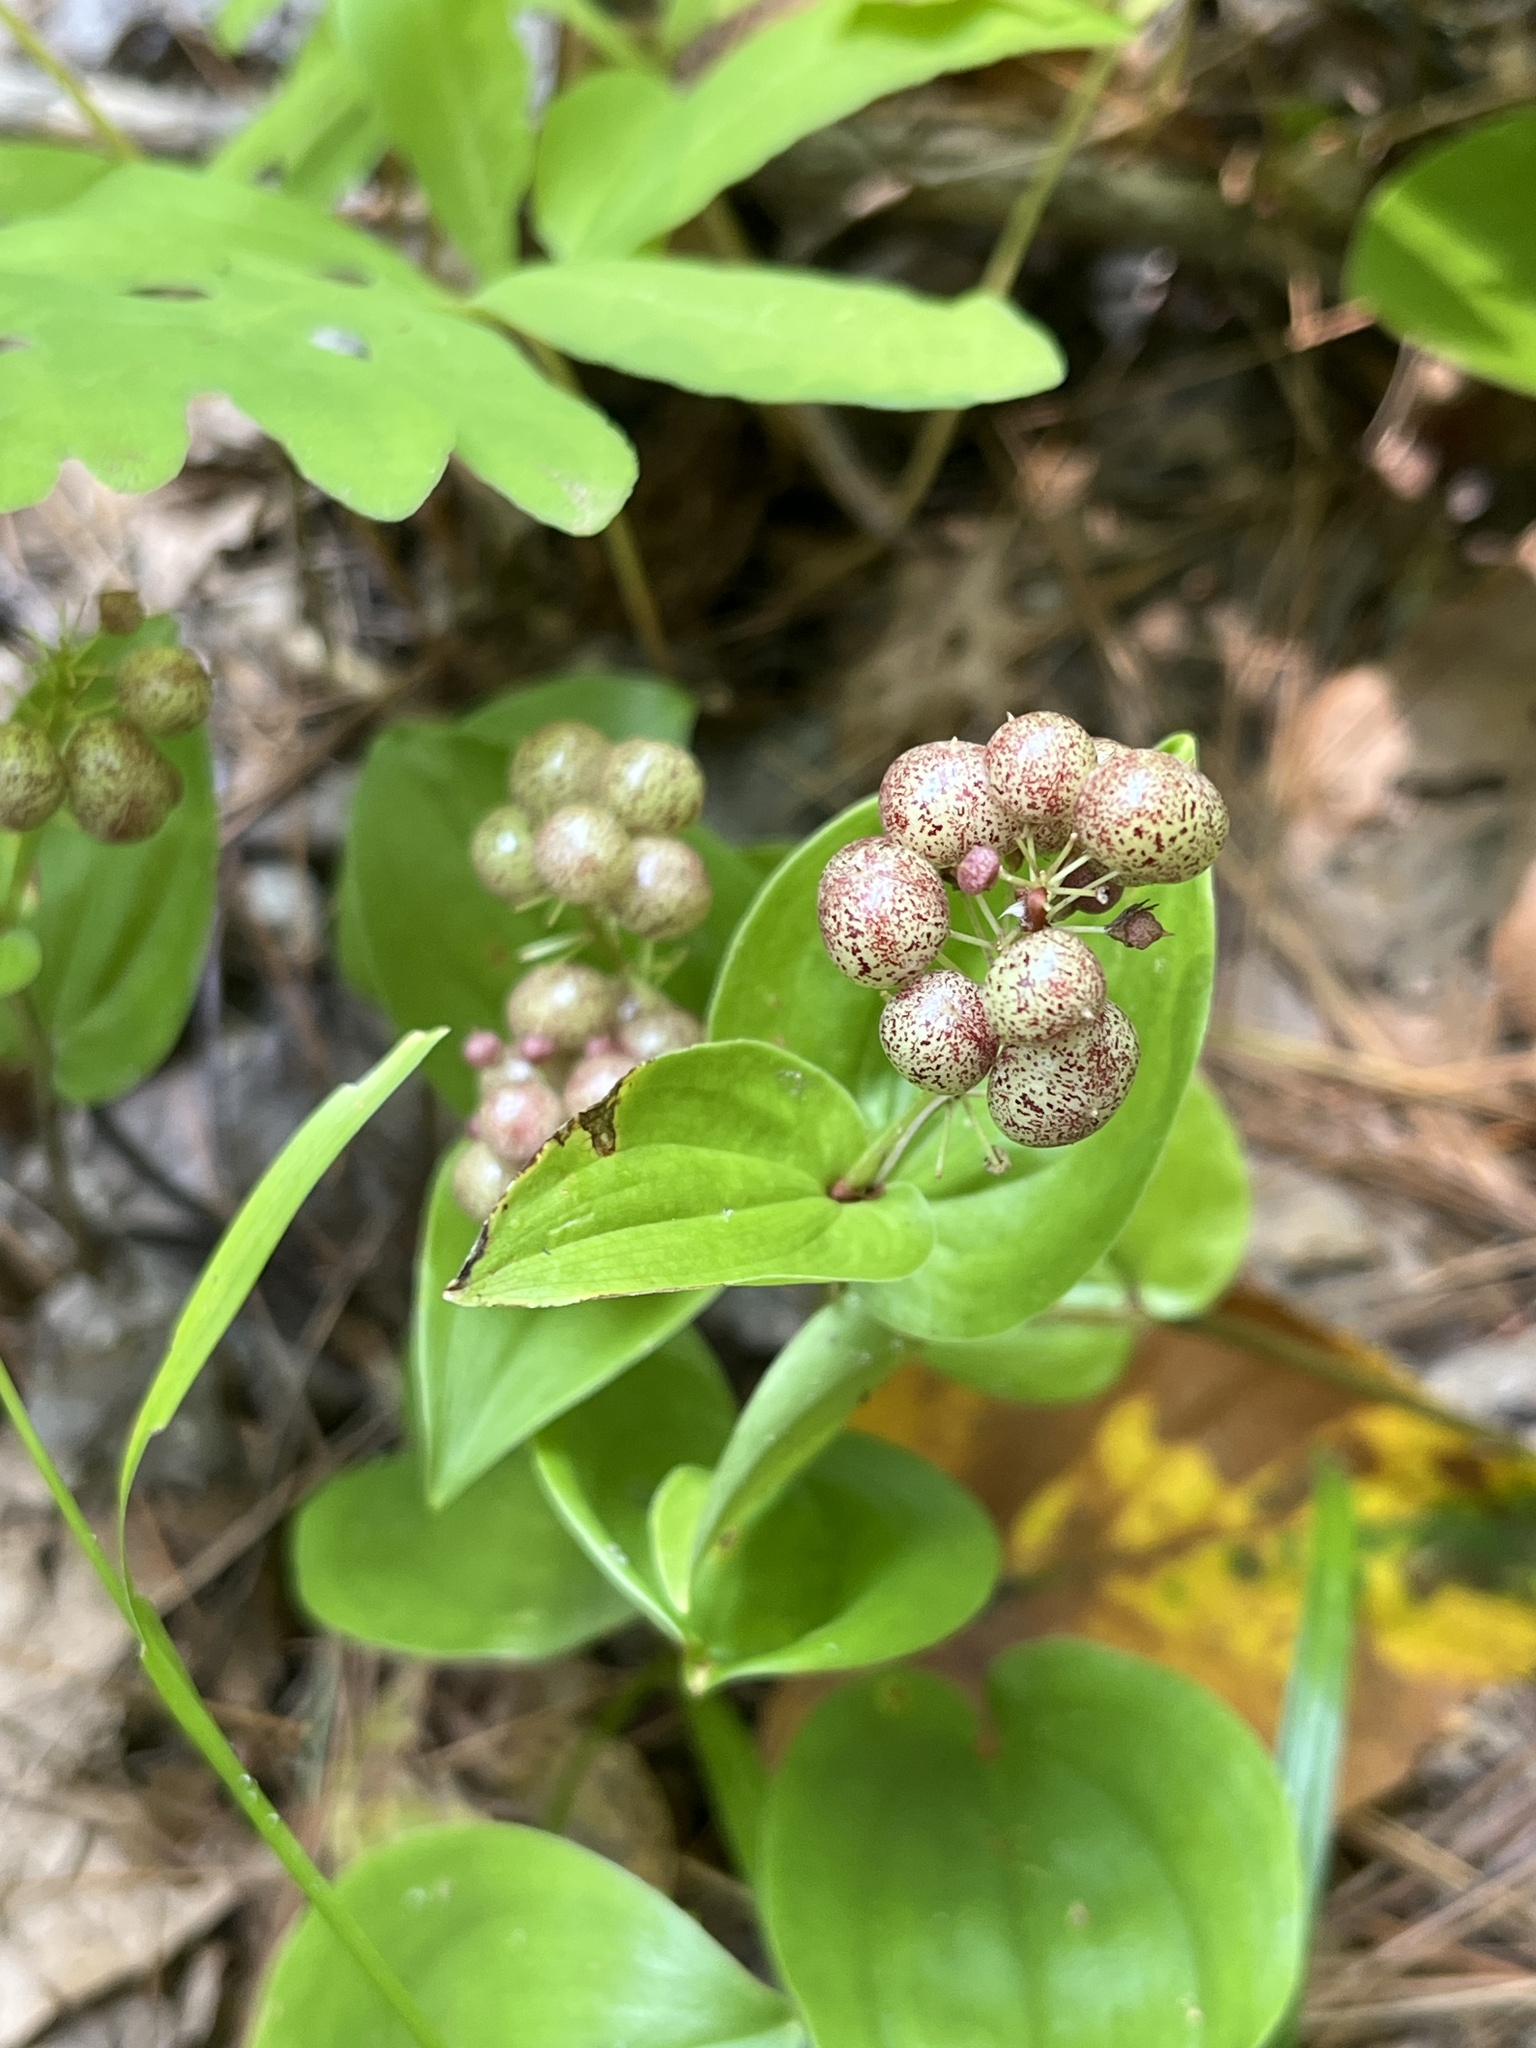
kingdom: Plantae
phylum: Tracheophyta
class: Liliopsida
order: Asparagales
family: Asparagaceae
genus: Maianthemum
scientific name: Maianthemum canadense
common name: False lily-of-the-valley
